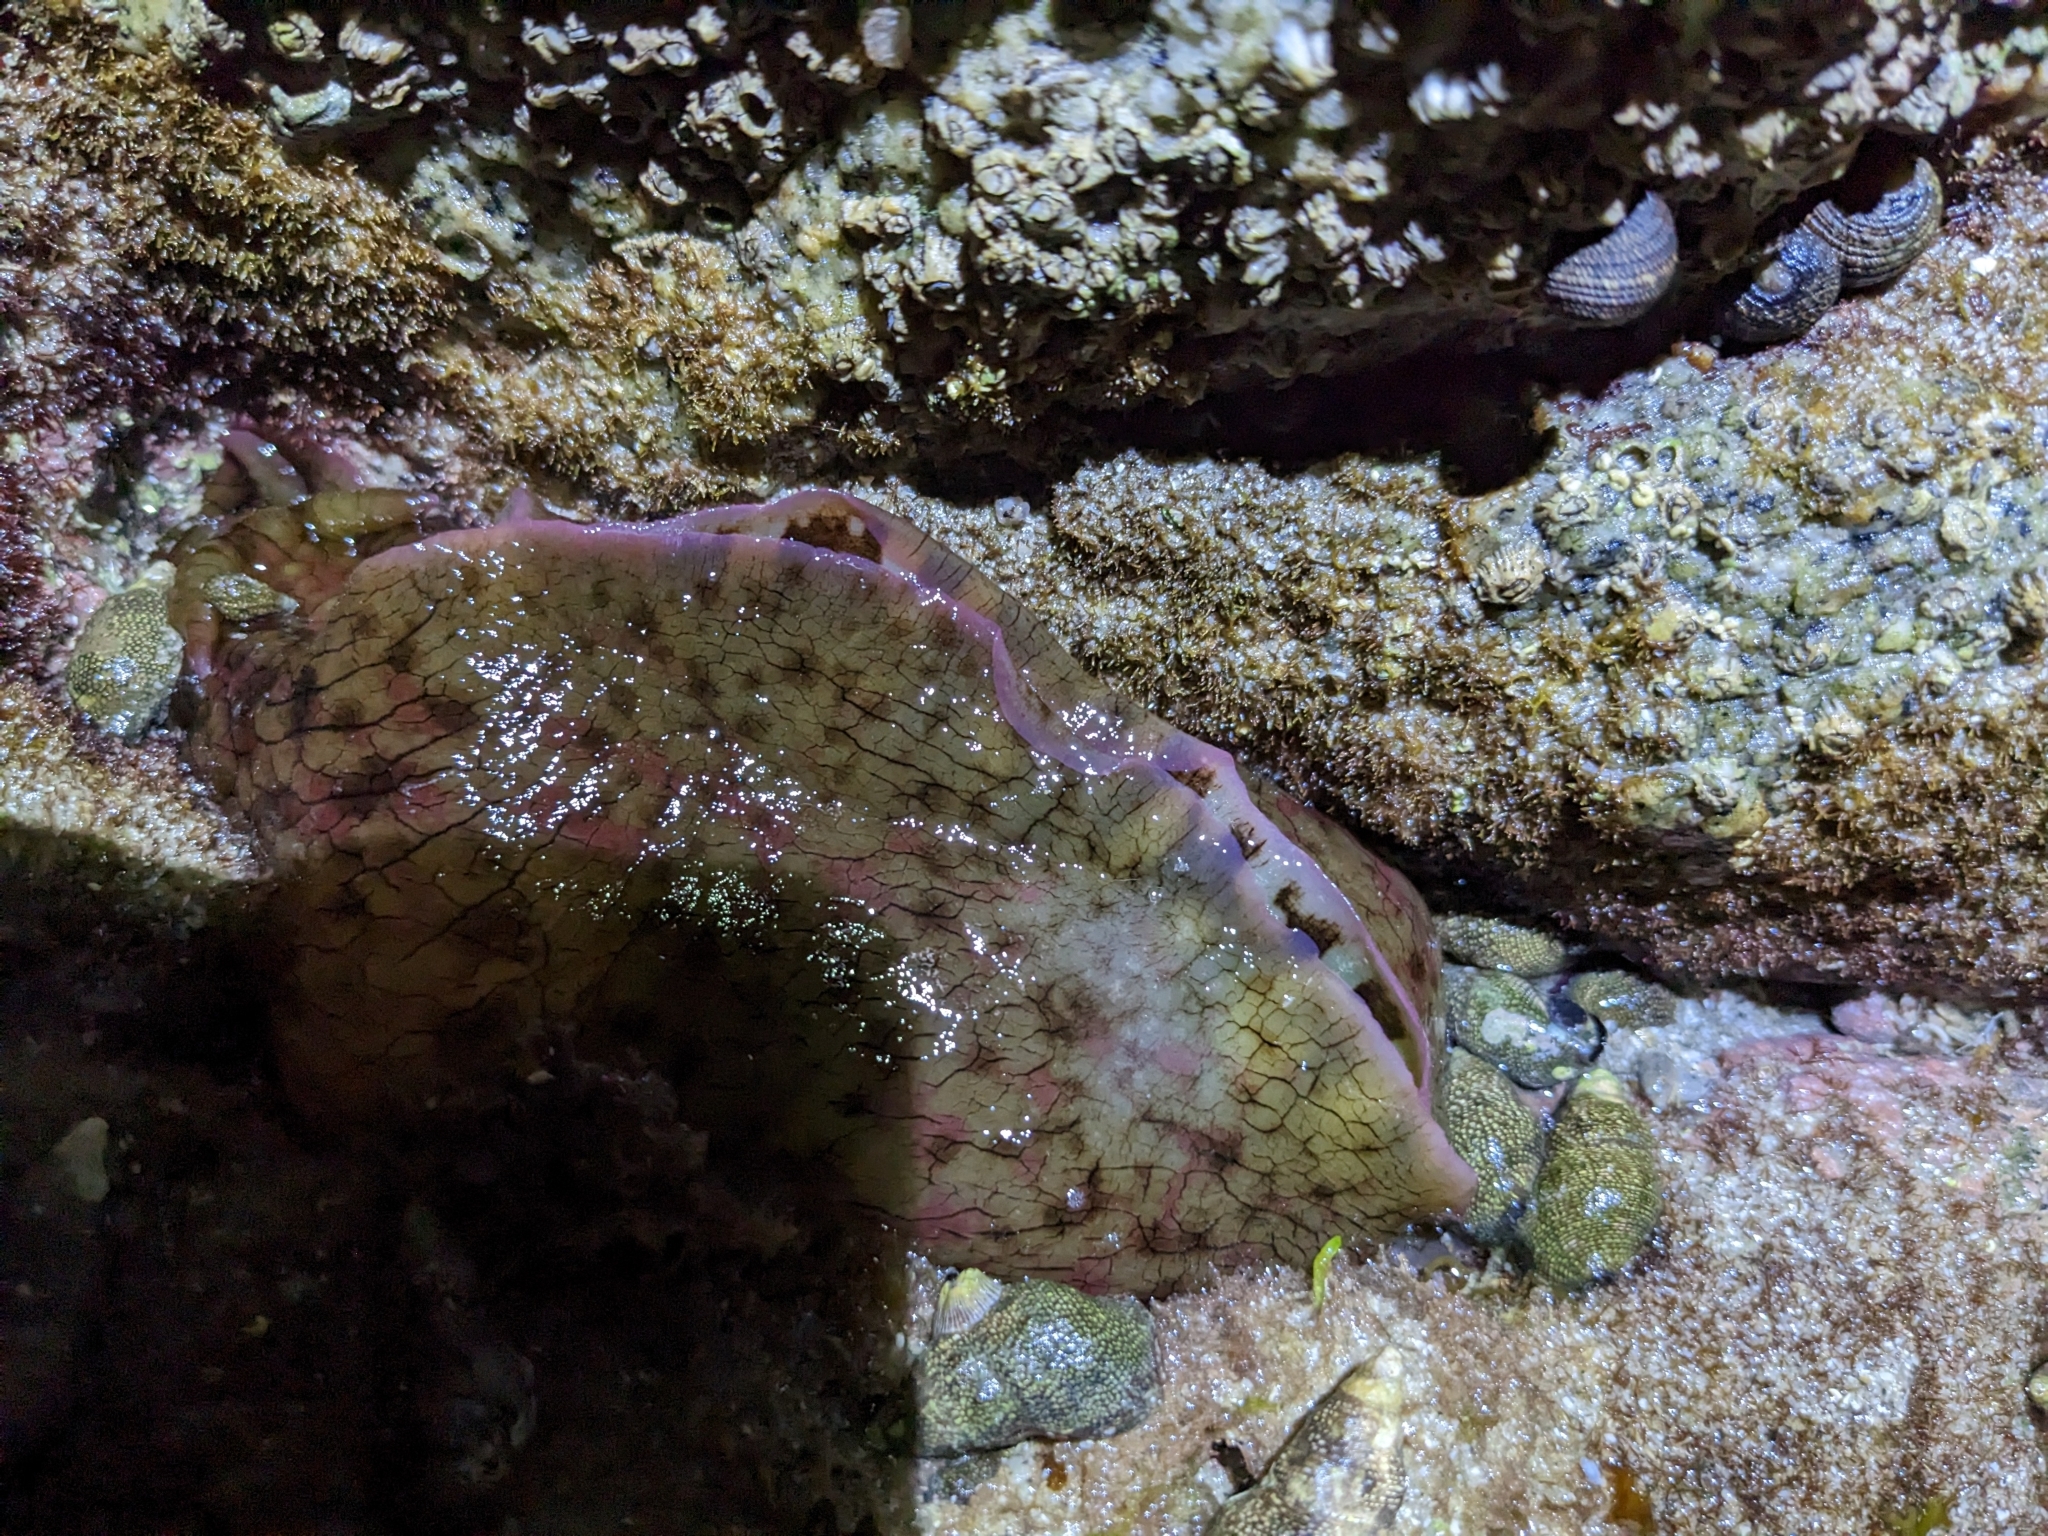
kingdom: Animalia
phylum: Mollusca
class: Gastropoda
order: Aplysiida
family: Aplysiidae
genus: Aplysia
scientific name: Aplysia californica
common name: California seahare
